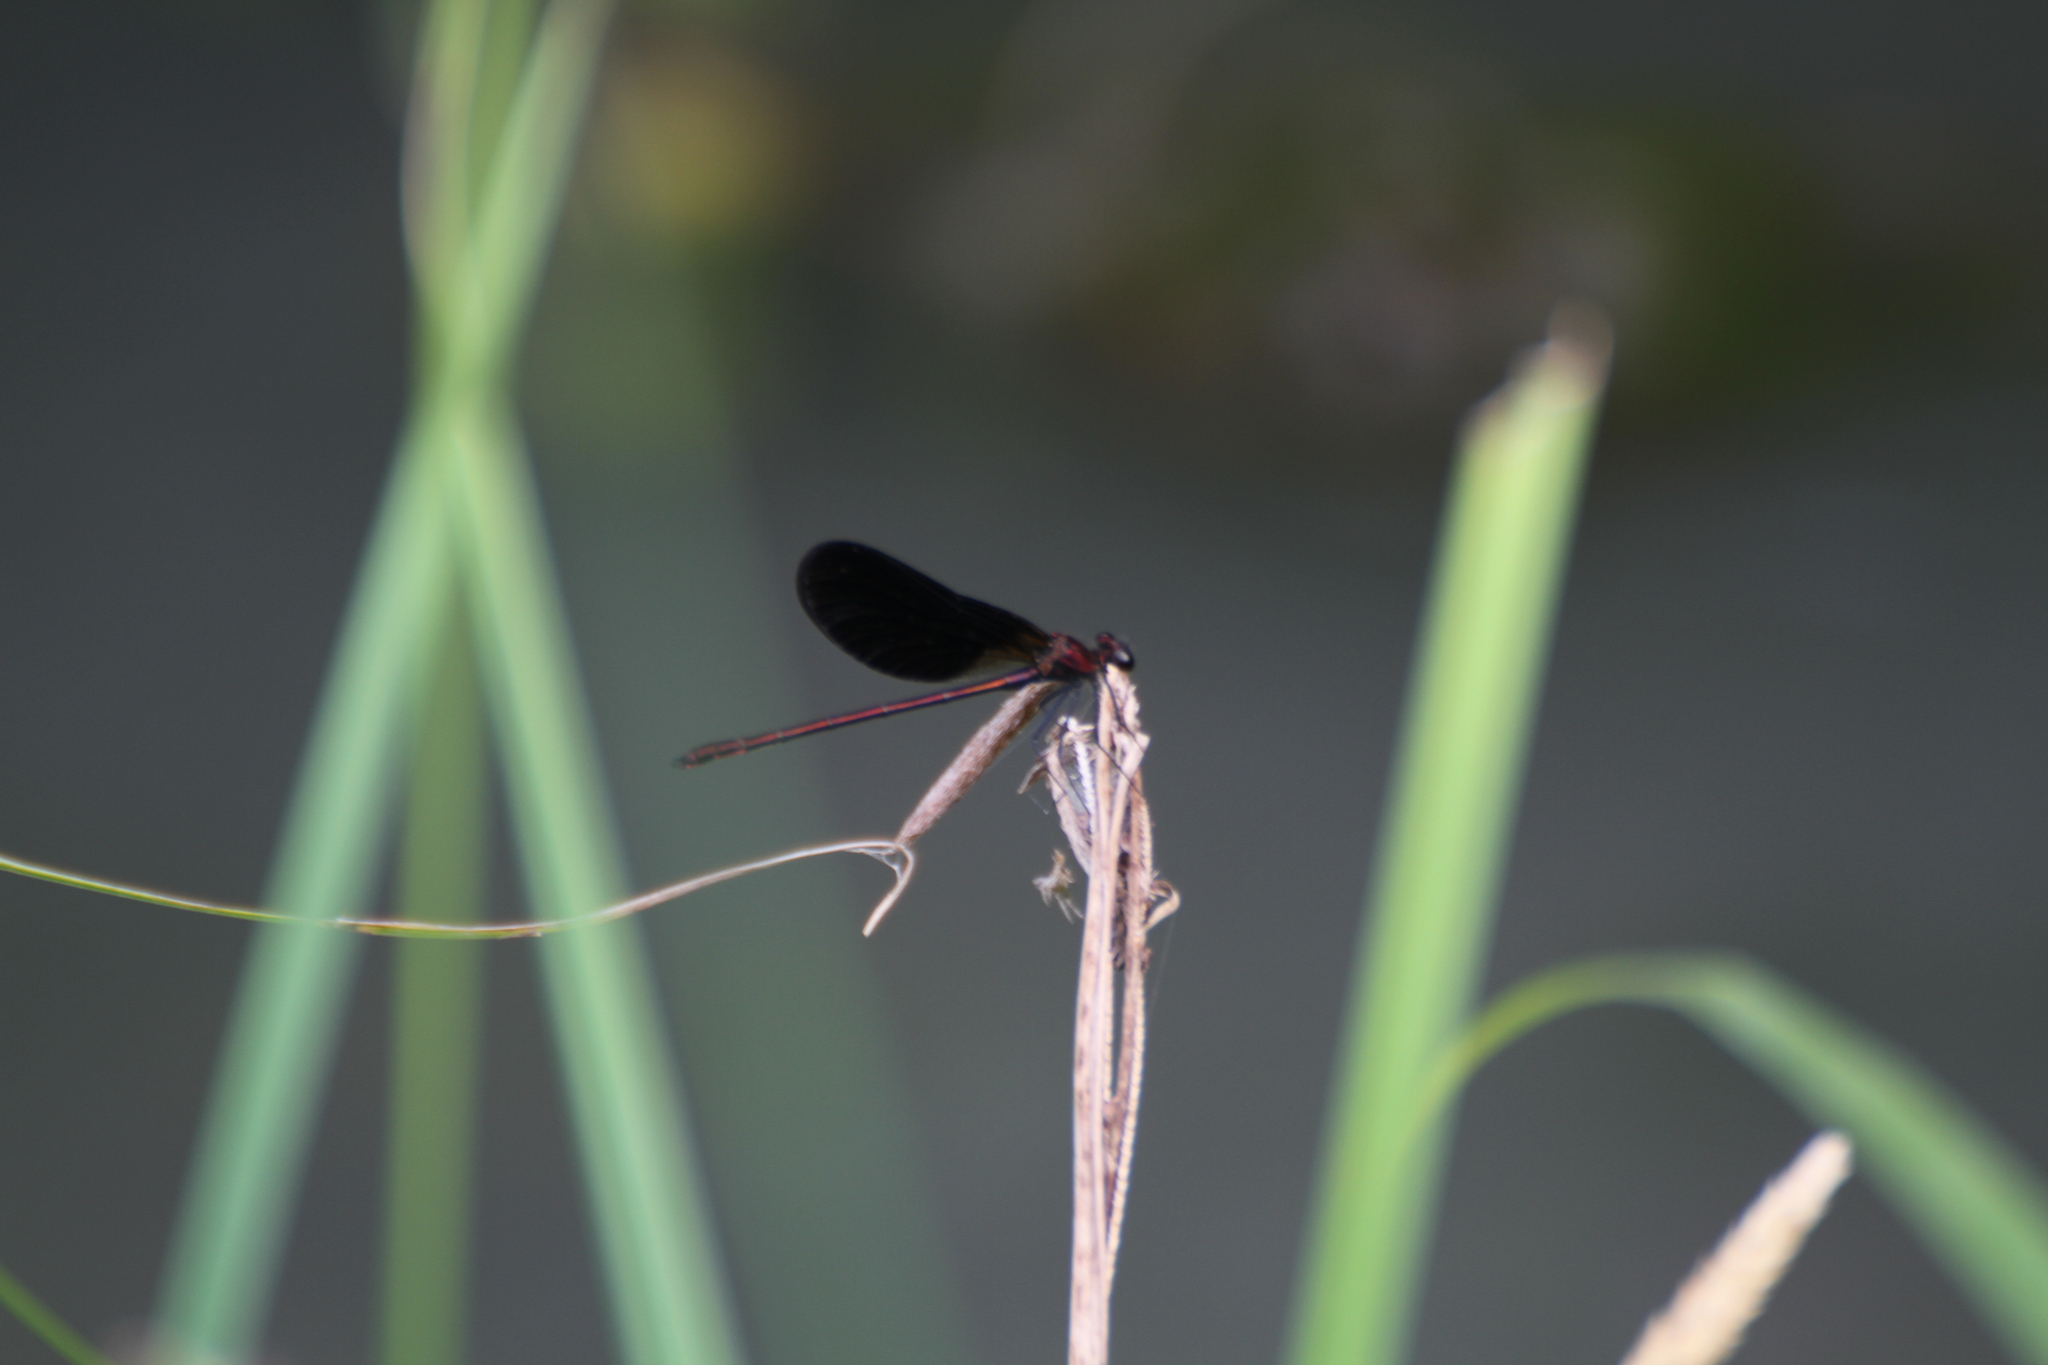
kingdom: Animalia
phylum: Arthropoda
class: Insecta
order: Odonata
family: Calopterygidae
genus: Calopteryx
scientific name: Calopteryx haemorrhoidalis
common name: Copper demoiselle
